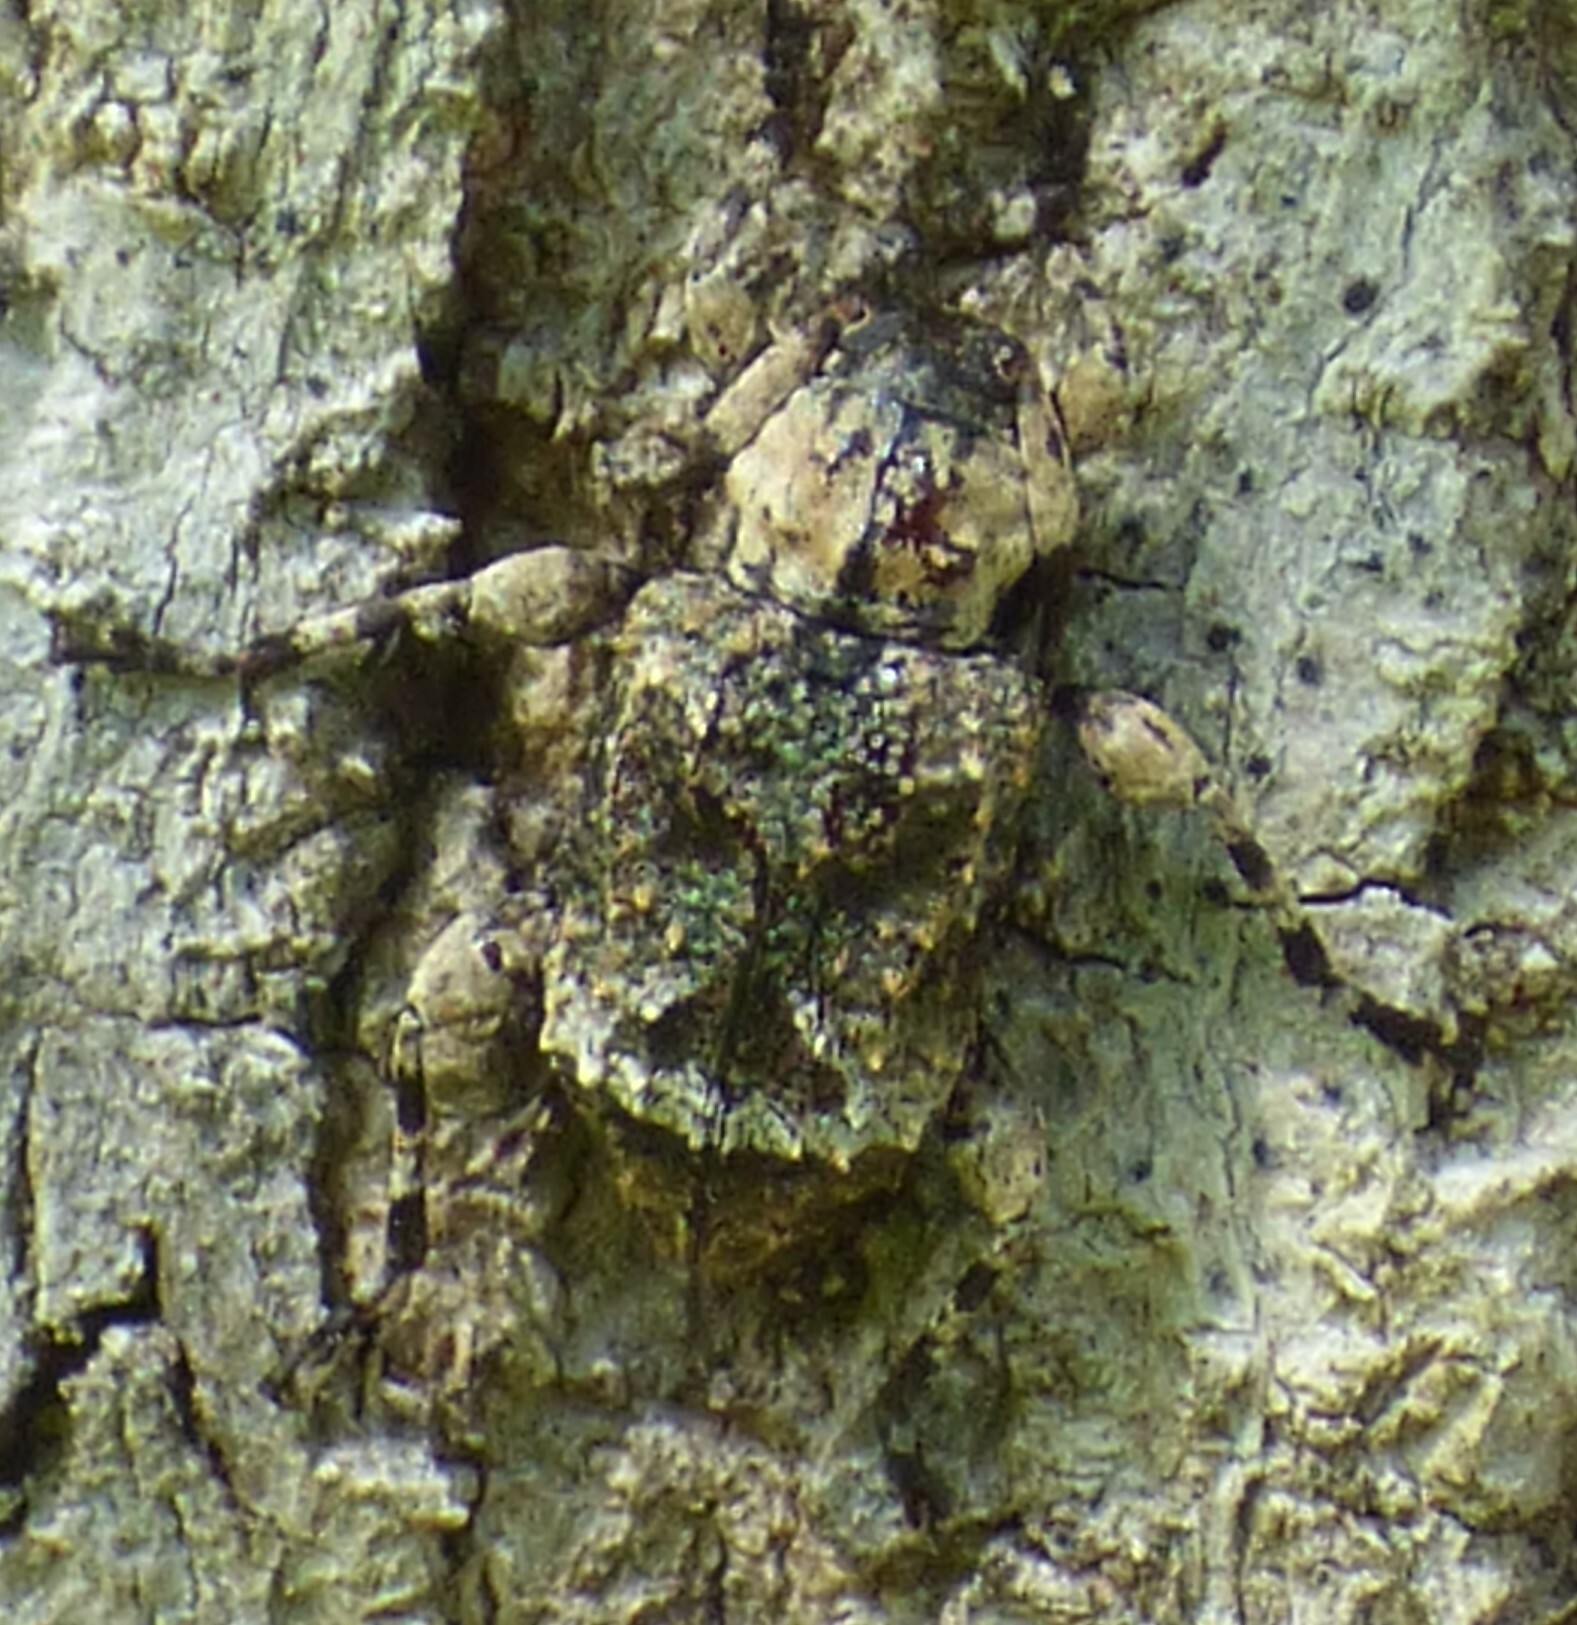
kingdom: Animalia
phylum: Arthropoda
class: Insecta
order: Coleoptera
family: Cerambycidae
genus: Leptostylus
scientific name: Leptostylus transversus
